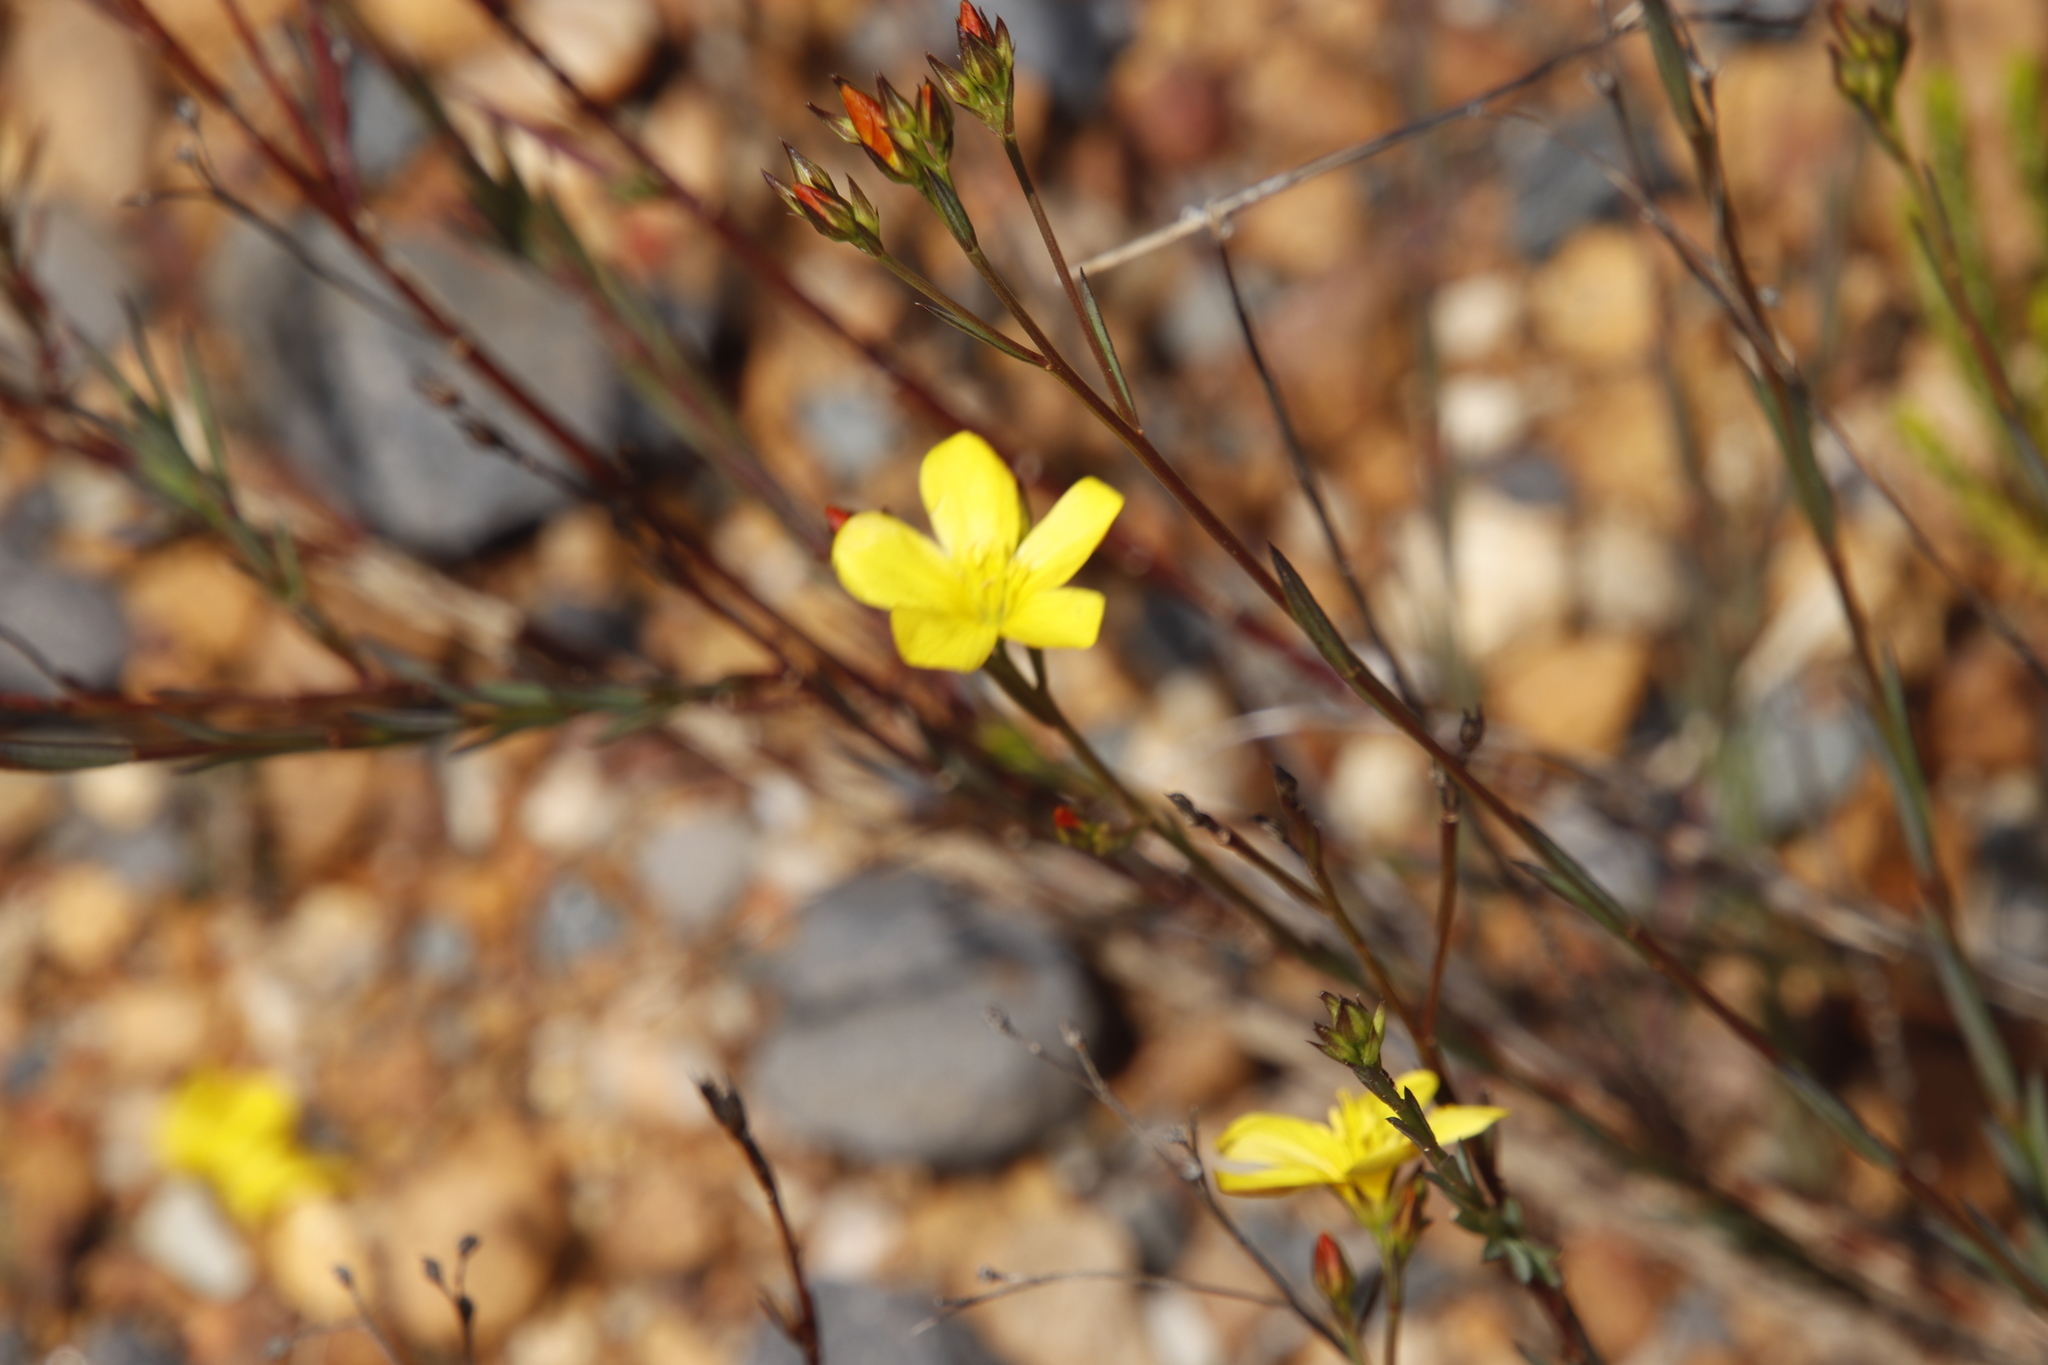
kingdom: Plantae
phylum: Tracheophyta
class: Magnoliopsida
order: Malpighiales
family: Linaceae
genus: Linum
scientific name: Linum africanum
